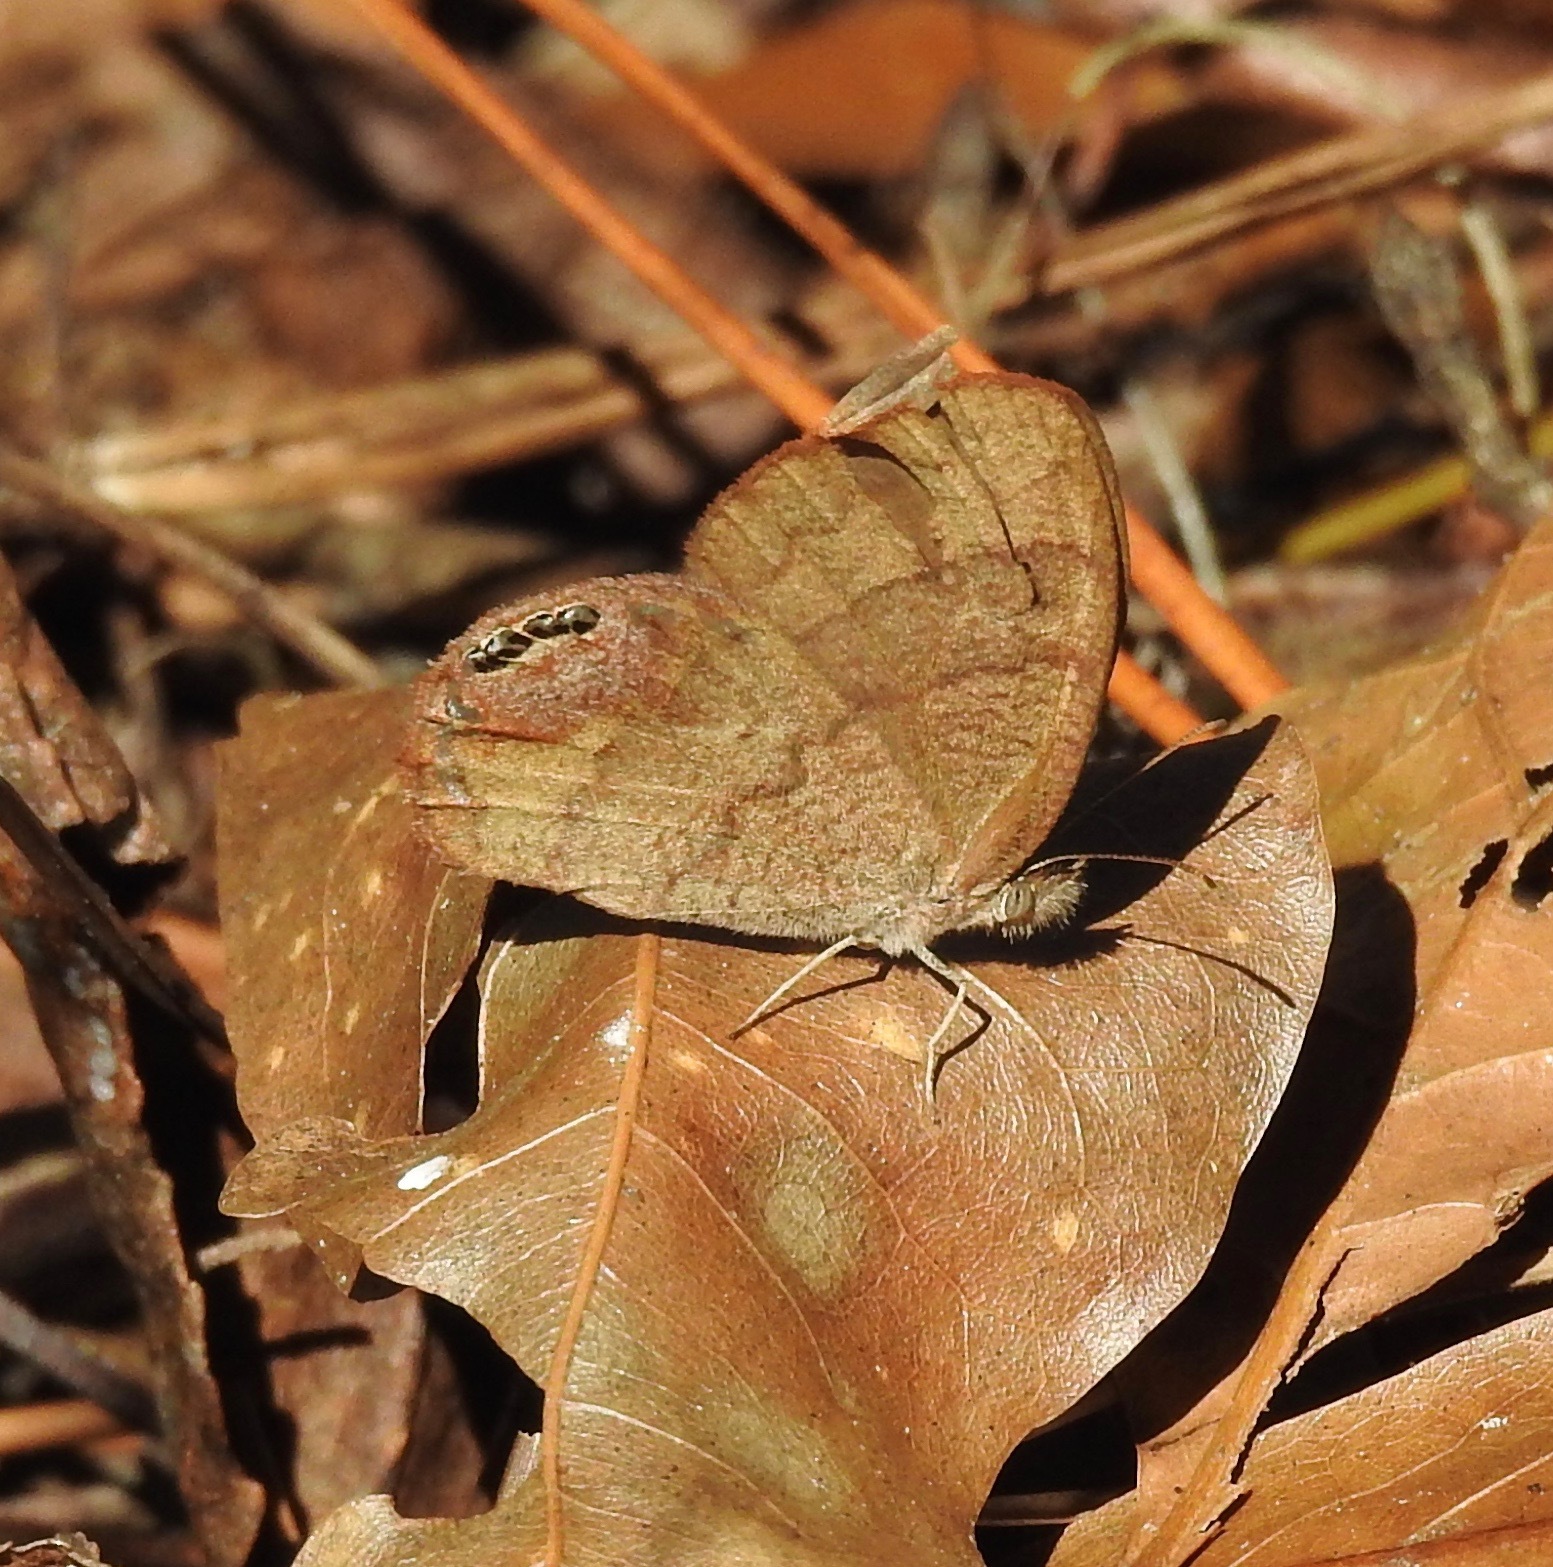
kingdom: Animalia
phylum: Arthropoda
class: Insecta
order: Lepidoptera
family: Nymphalidae
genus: Euptychia
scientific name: Euptychia cornelius
